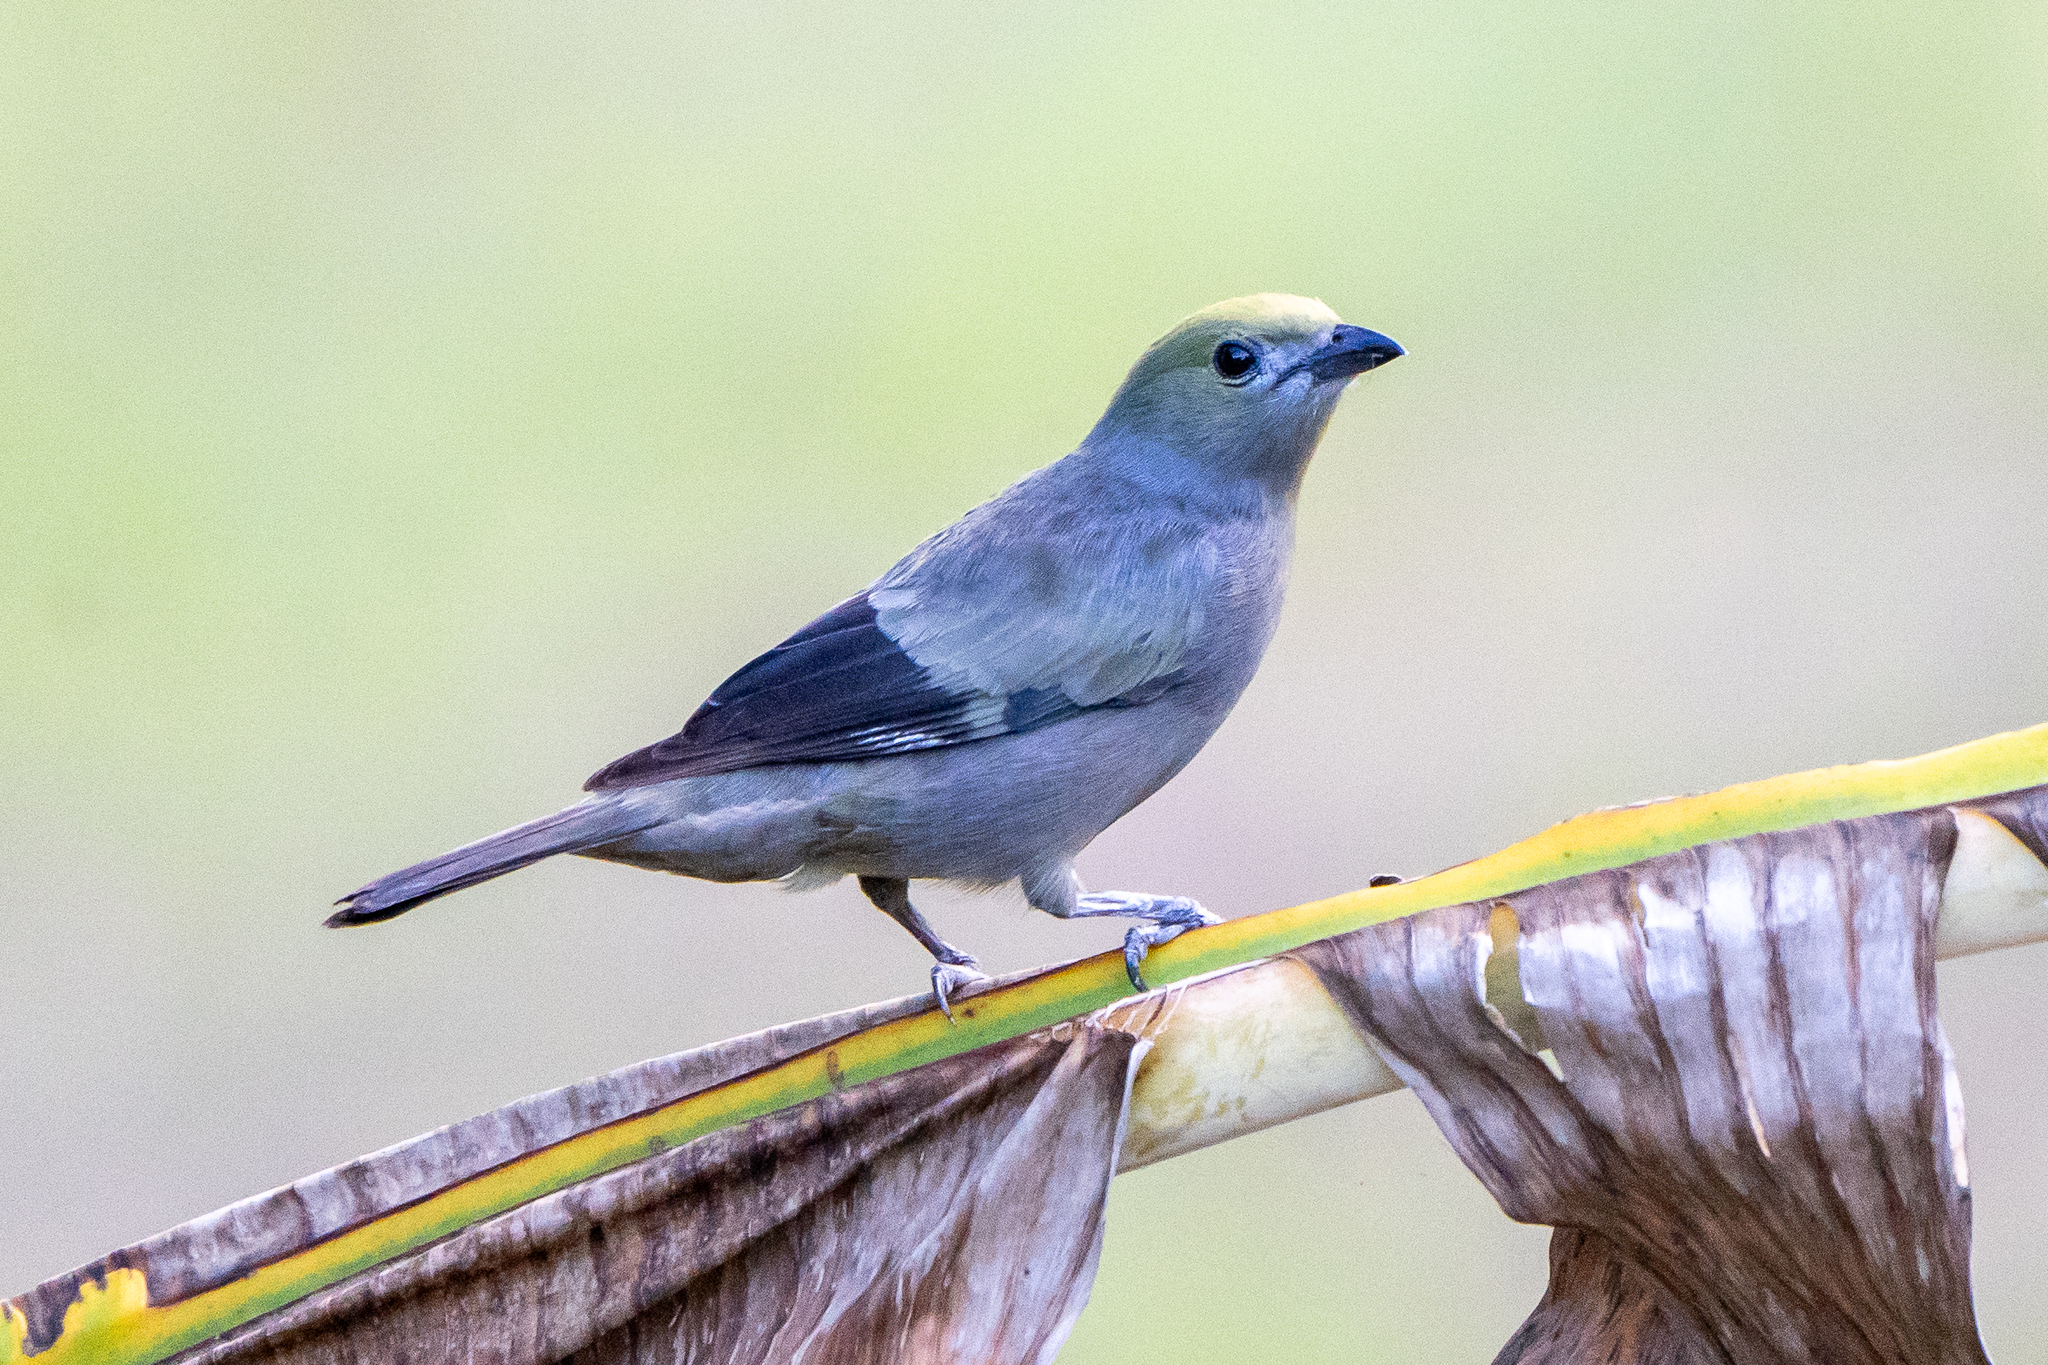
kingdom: Animalia
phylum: Chordata
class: Aves
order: Passeriformes
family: Thraupidae
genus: Thraupis
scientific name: Thraupis palmarum
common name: Palm tanager
